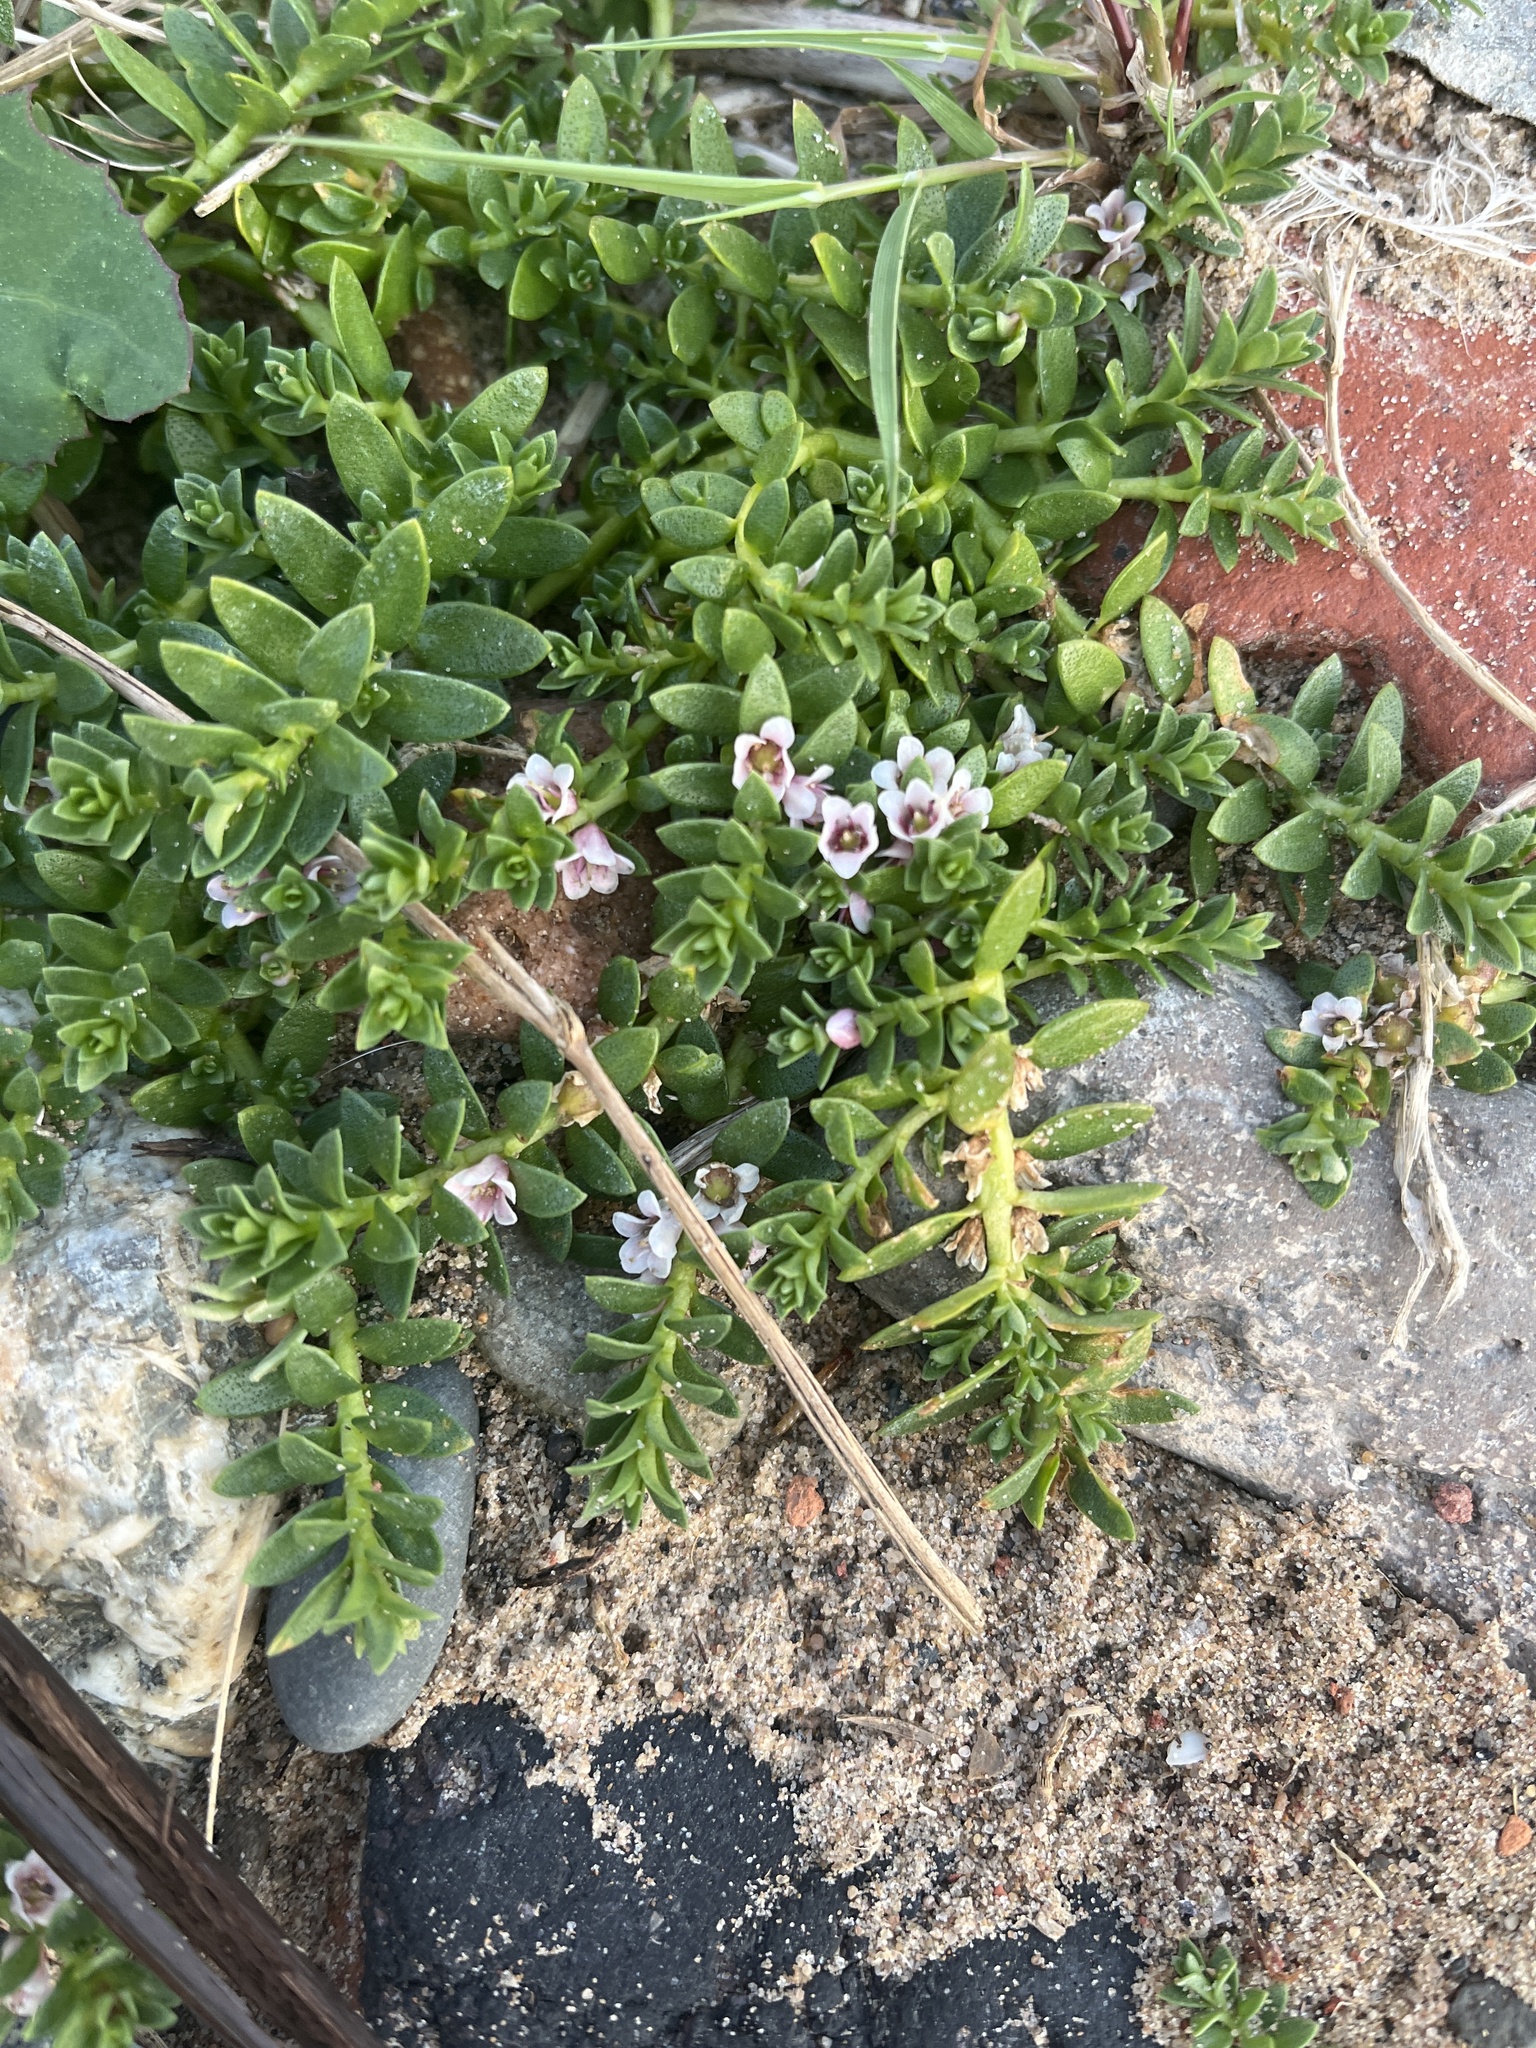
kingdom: Plantae
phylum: Tracheophyta
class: Magnoliopsida
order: Ericales
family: Primulaceae
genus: Lysimachia
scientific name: Lysimachia maritima
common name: Sea milkwort
